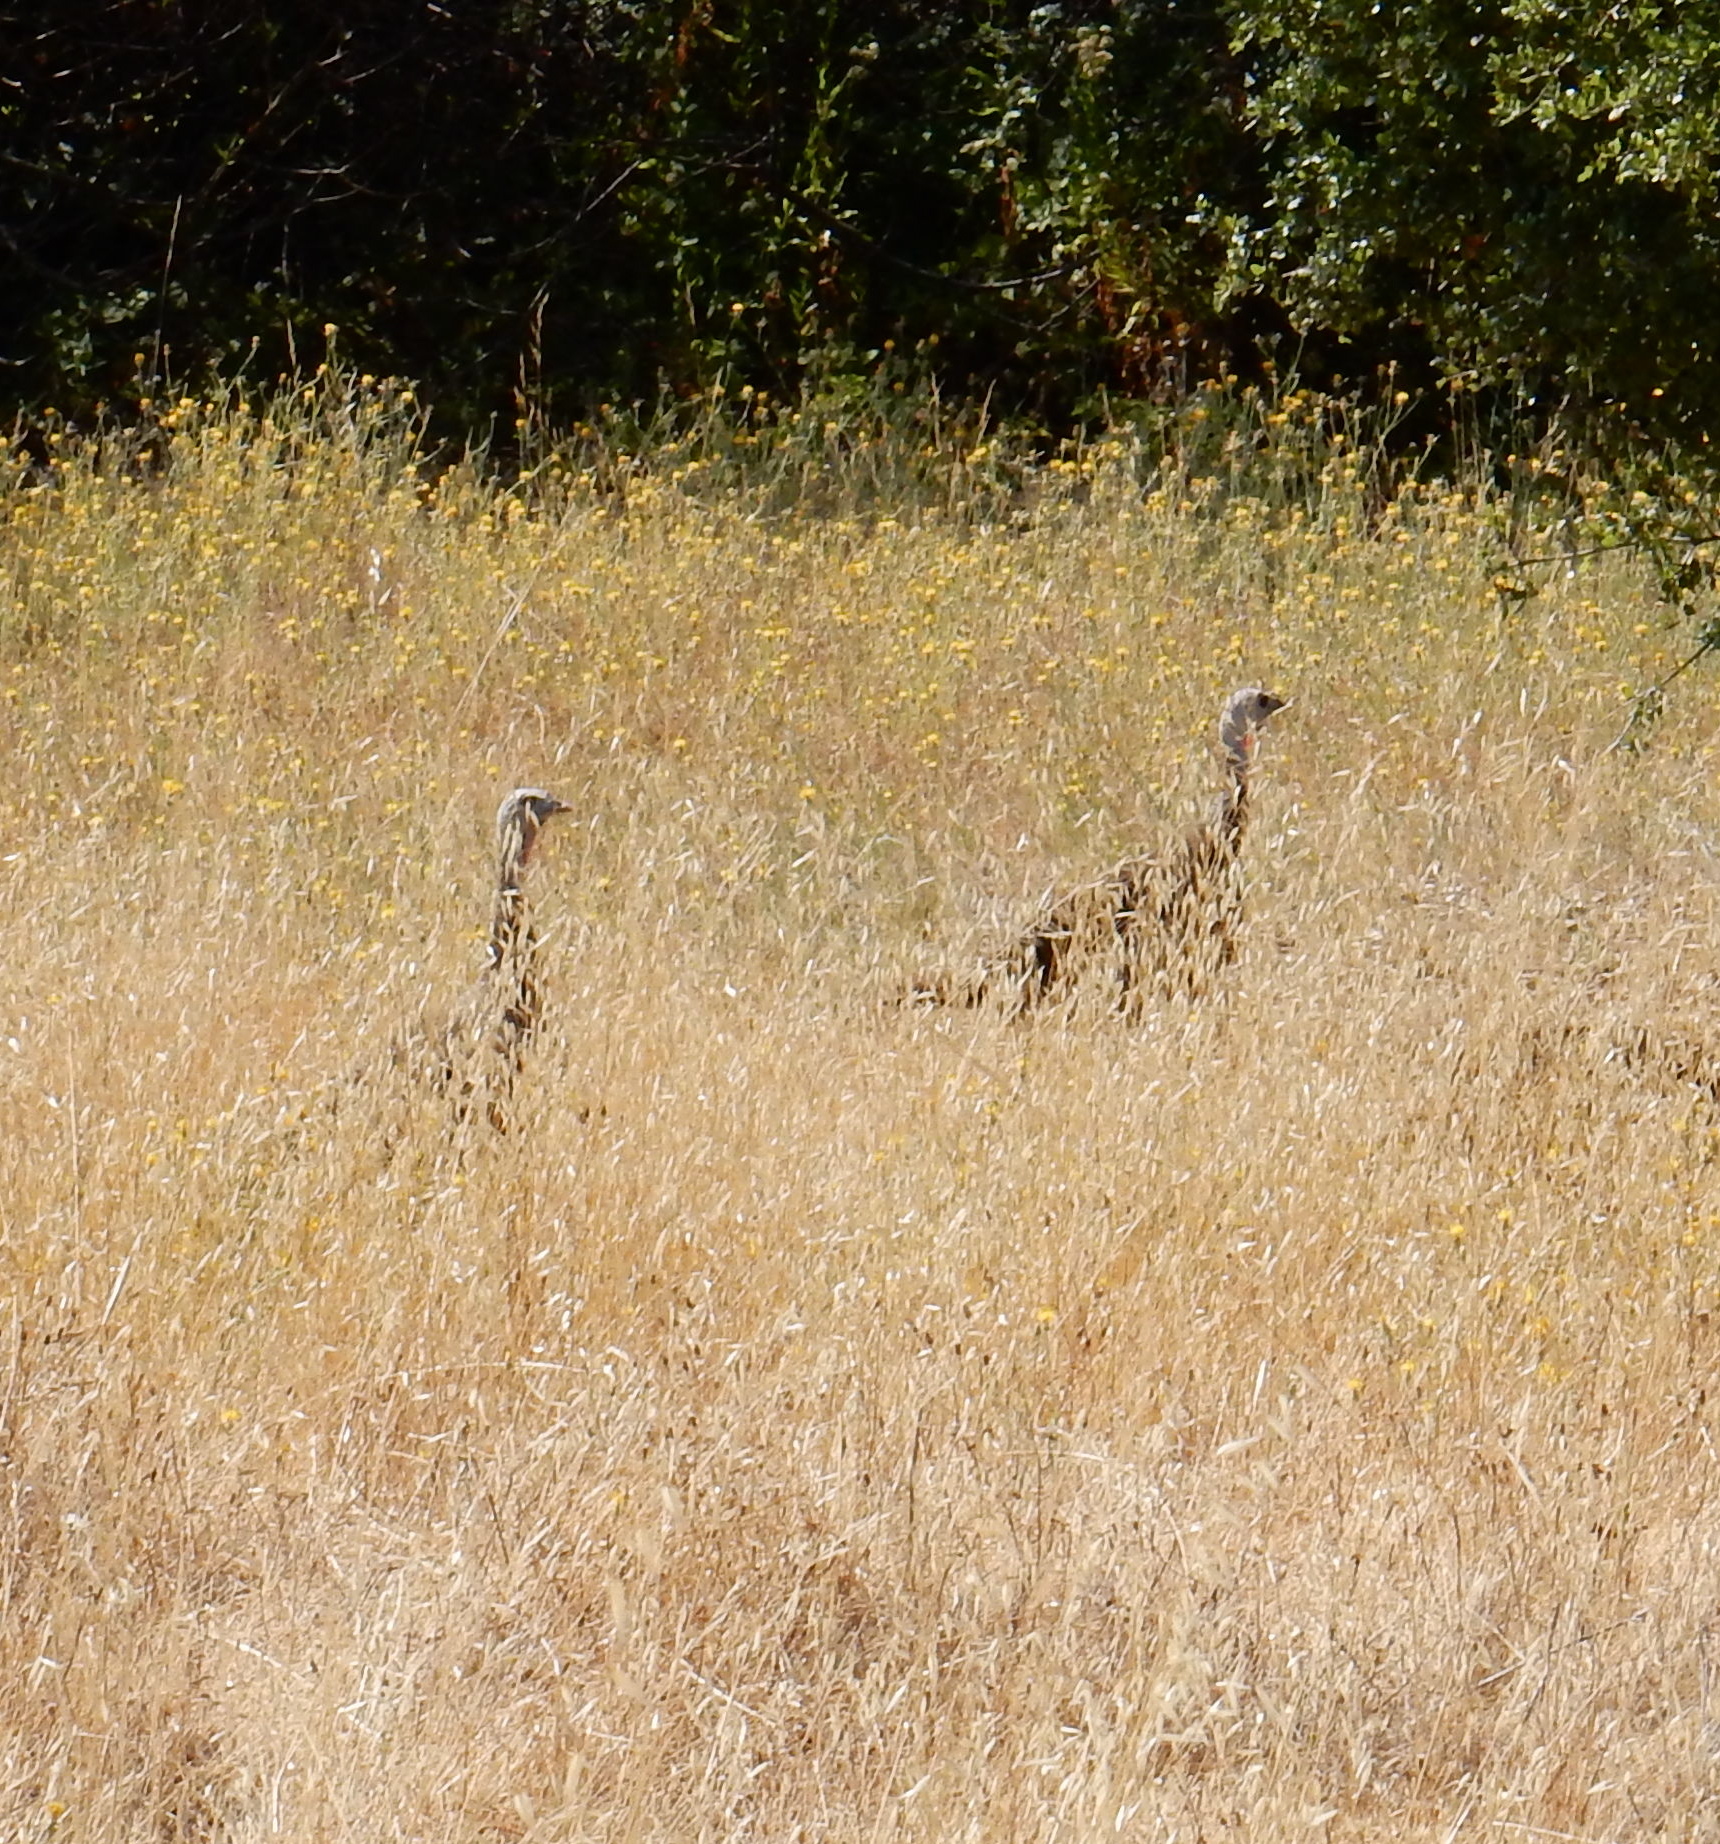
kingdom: Animalia
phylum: Chordata
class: Aves
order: Galliformes
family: Phasianidae
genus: Meleagris
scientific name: Meleagris gallopavo
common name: Wild turkey
